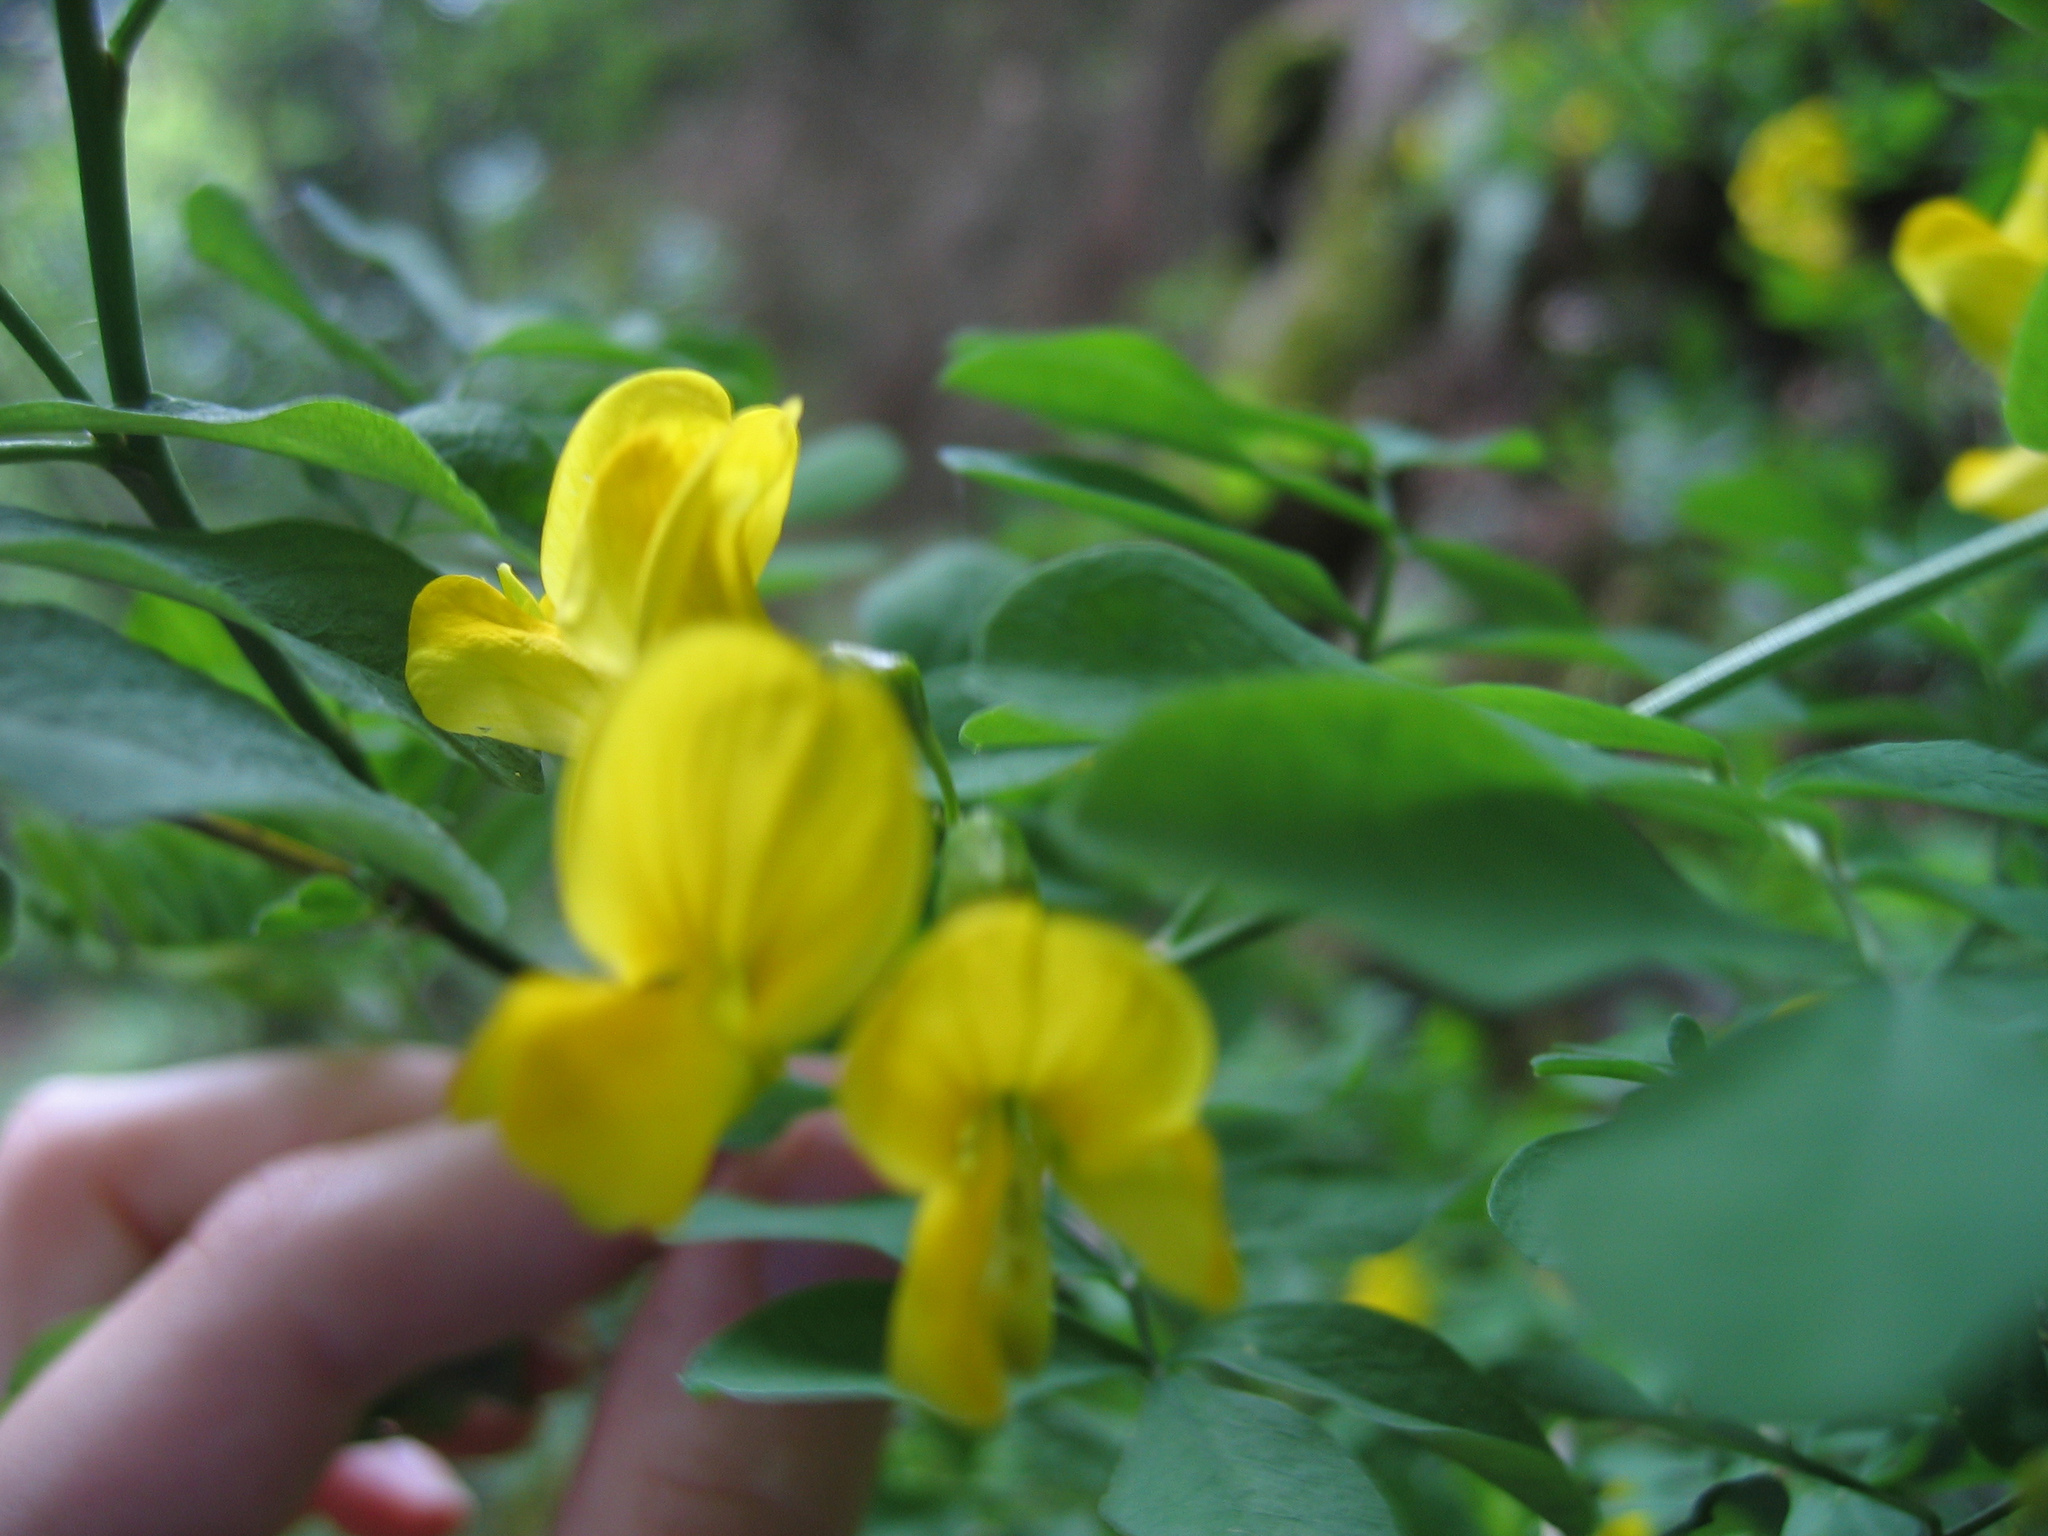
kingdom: Plantae
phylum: Tracheophyta
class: Magnoliopsida
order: Fabales
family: Fabaceae
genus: Hippocrepis
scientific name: Hippocrepis emerus
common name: Scorpion senna
